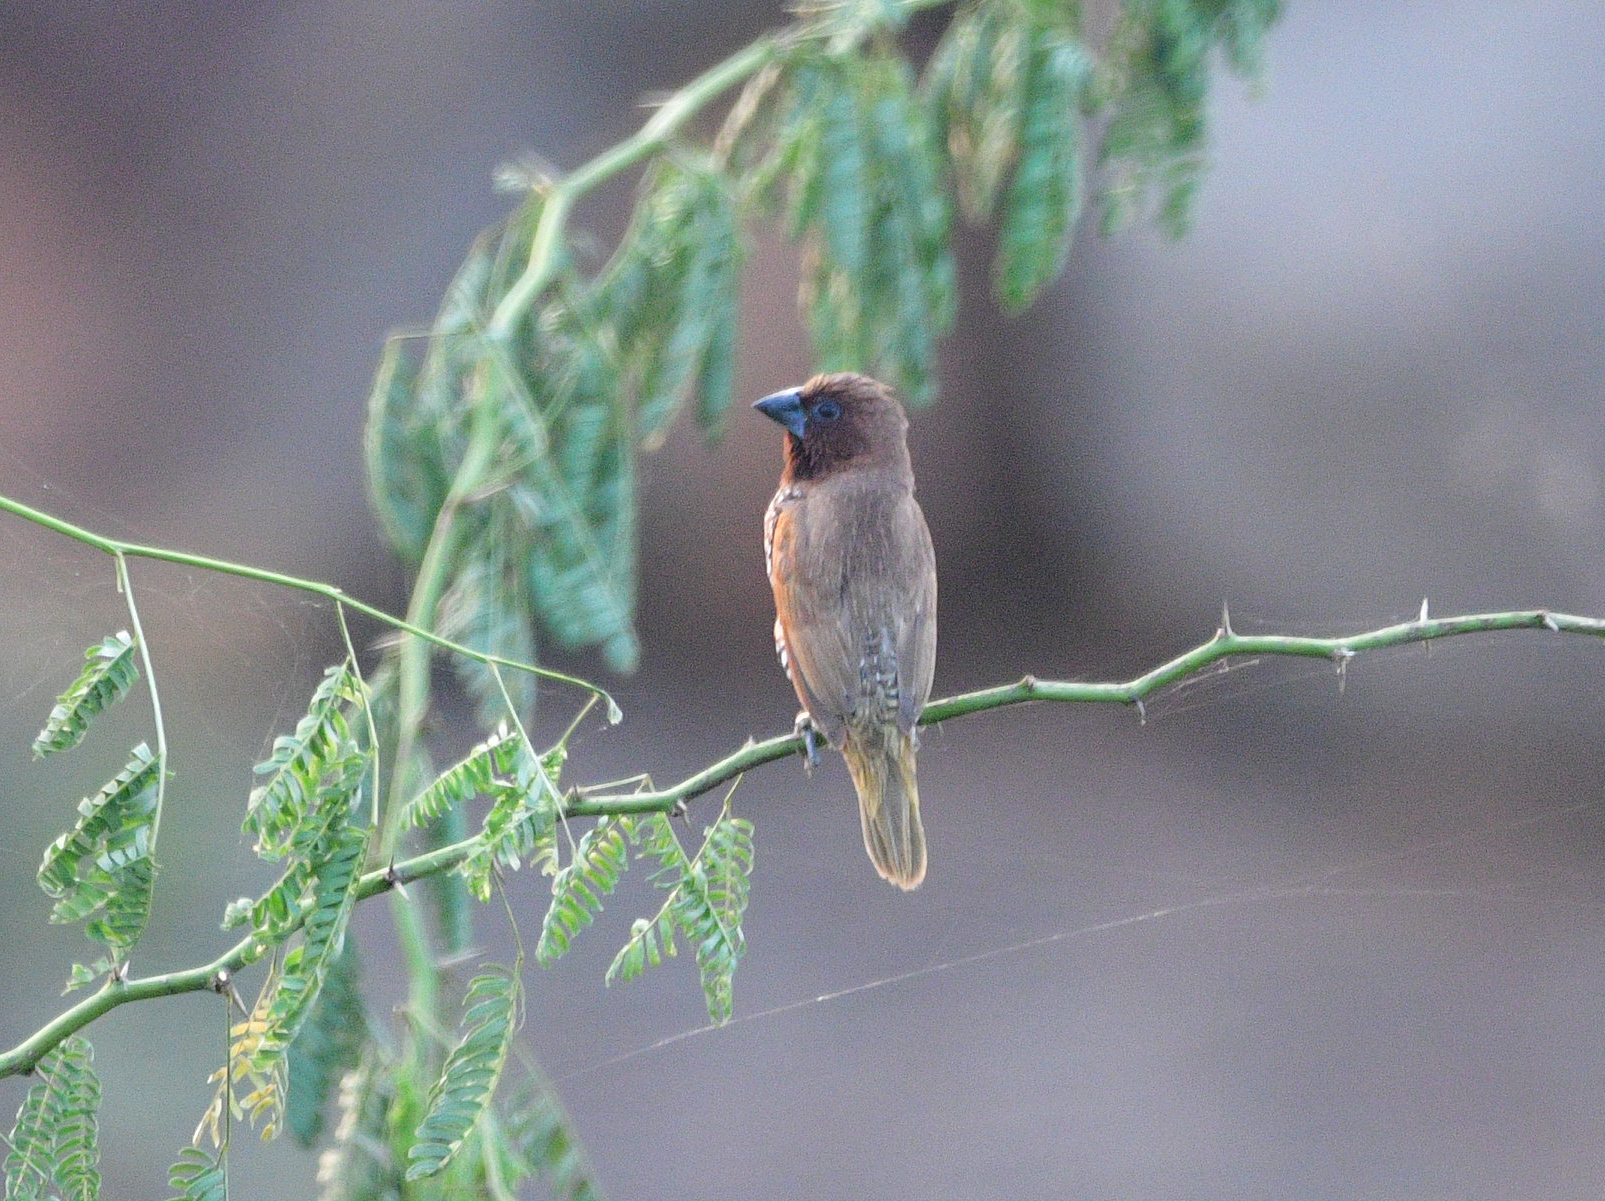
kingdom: Animalia
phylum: Chordata
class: Aves
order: Passeriformes
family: Estrildidae
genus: Lonchura
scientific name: Lonchura punctulata
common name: Scaly-breasted munia
